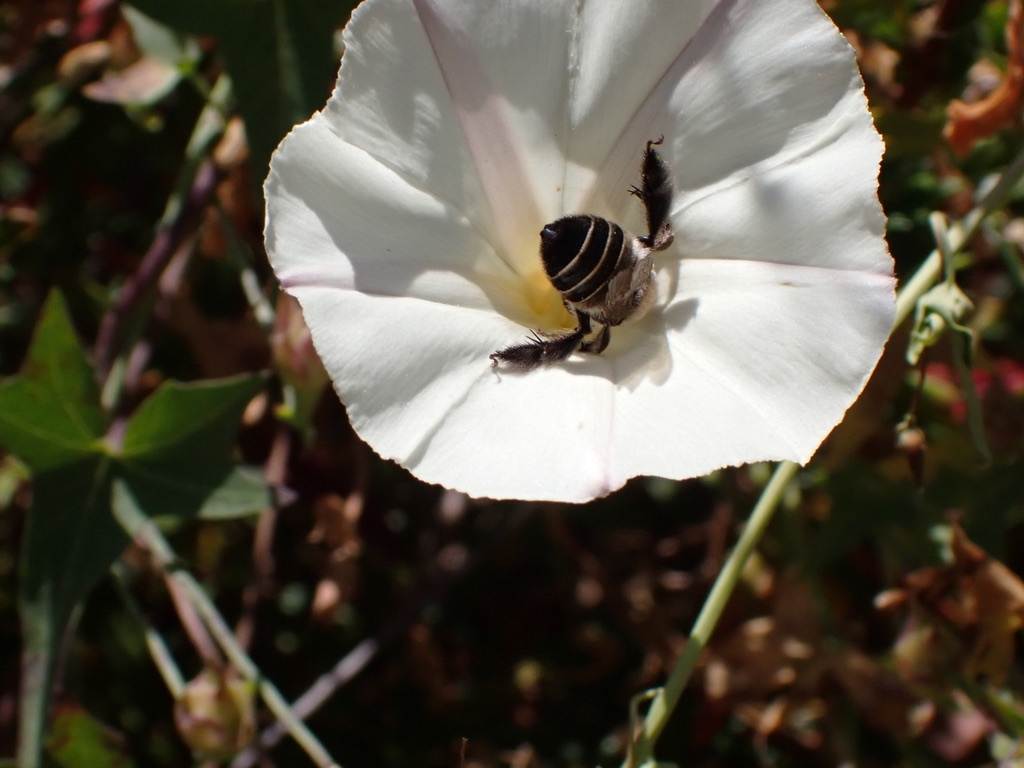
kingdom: Animalia
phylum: Arthropoda
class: Insecta
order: Hymenoptera
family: Apidae
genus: Diadasia
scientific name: Diadasia bituberculata
